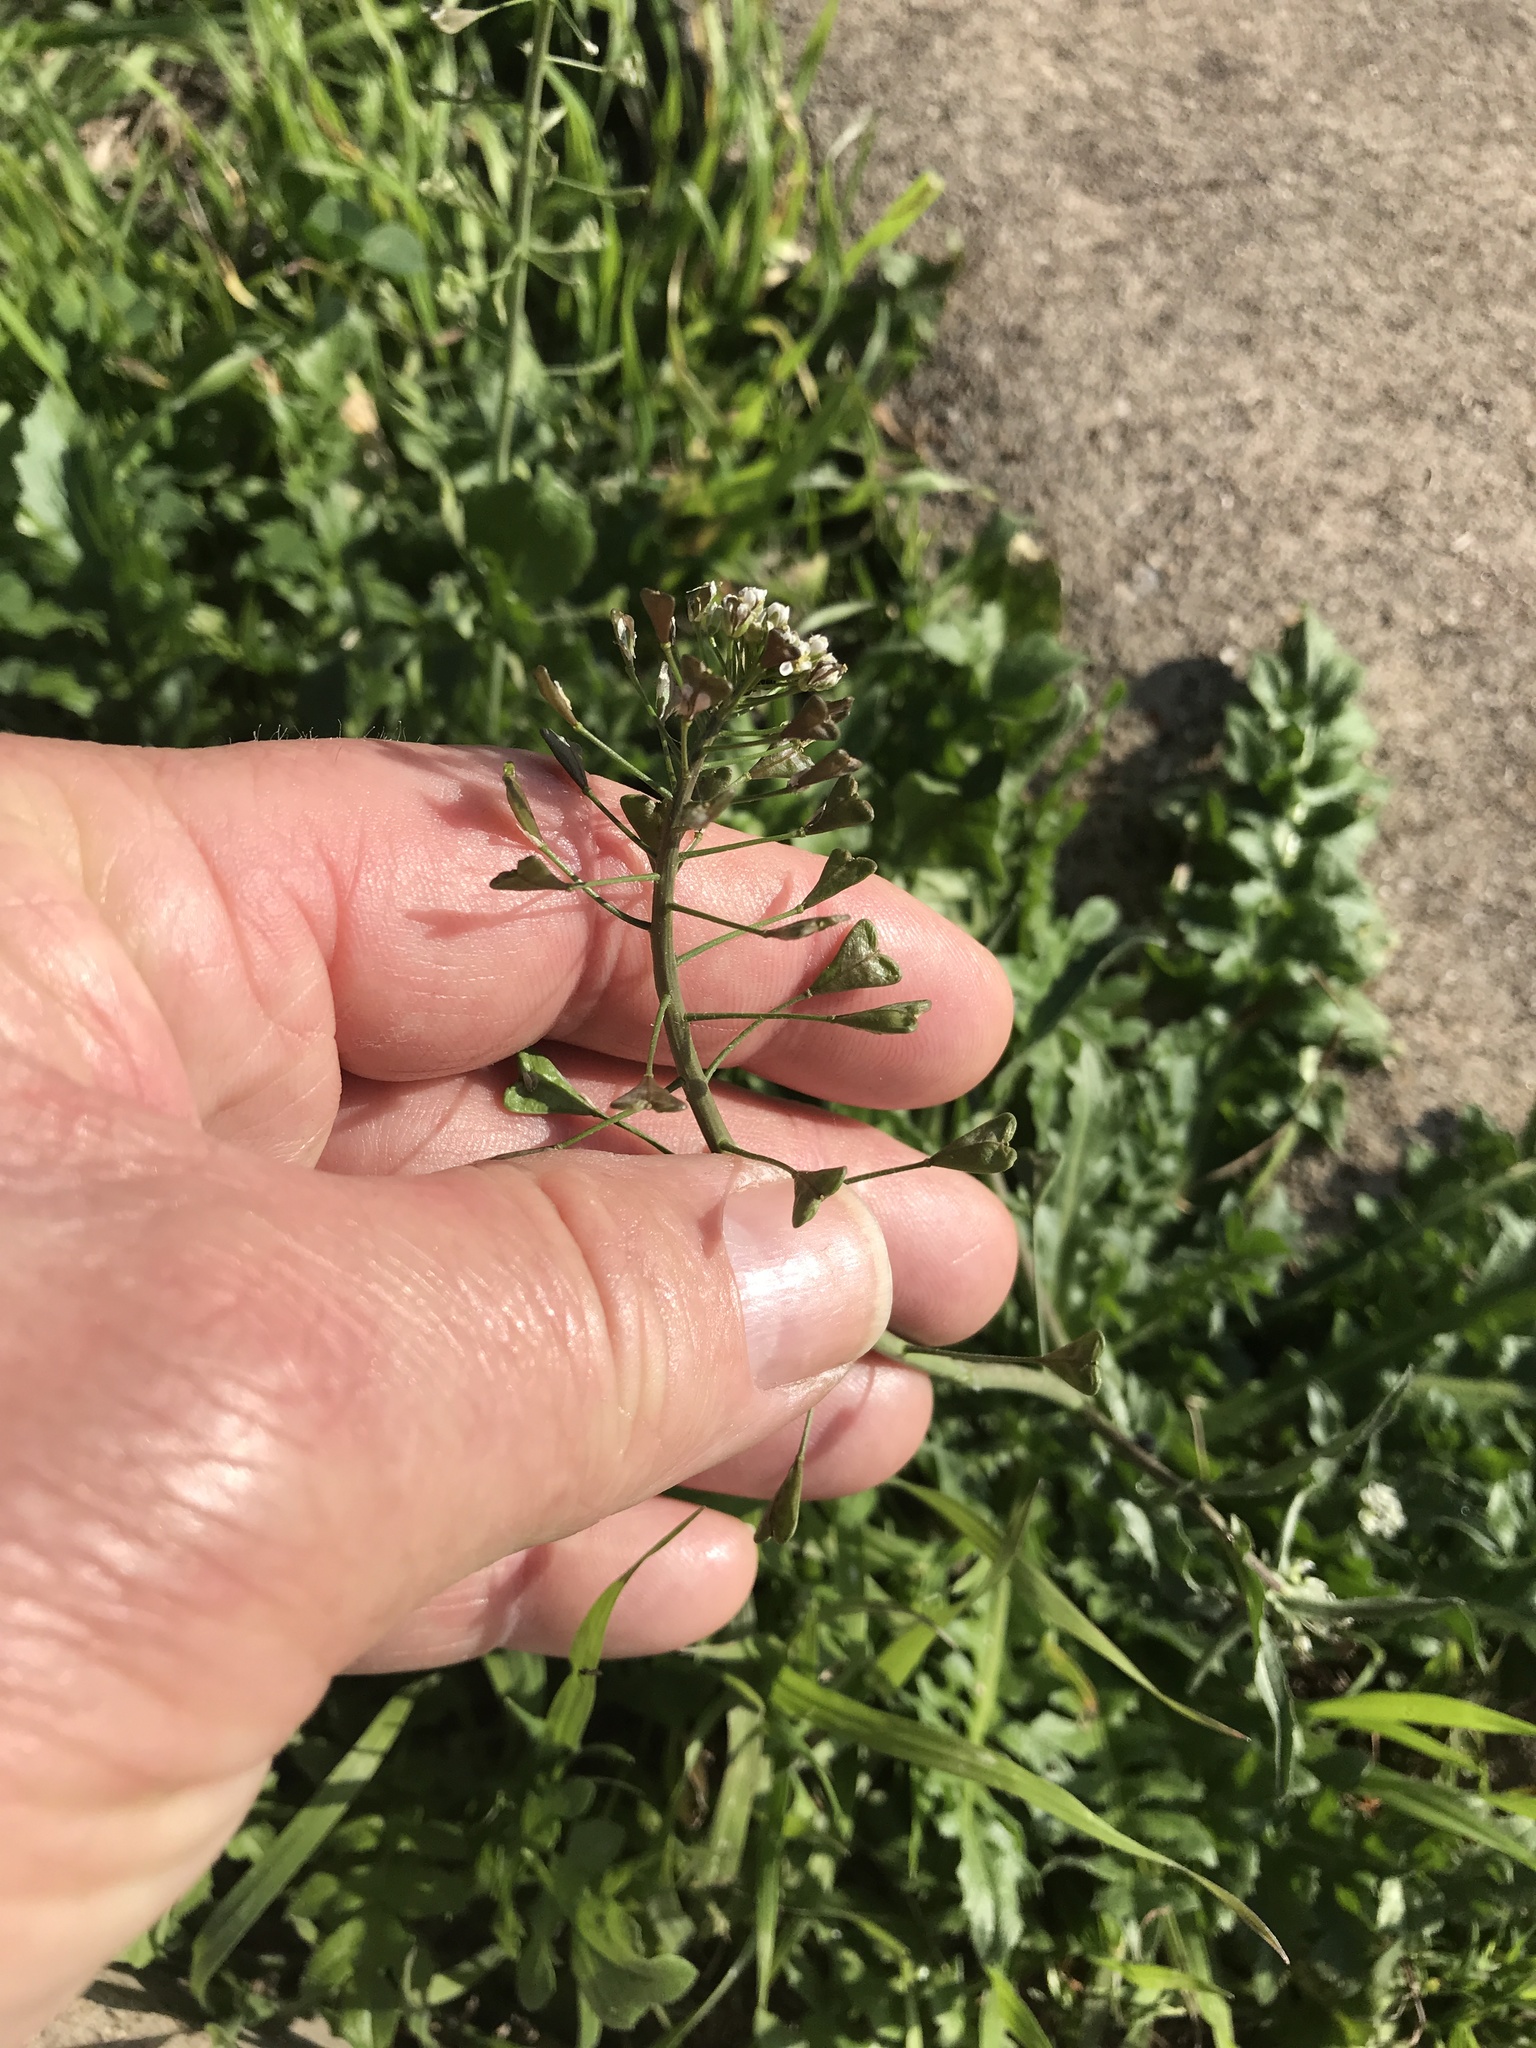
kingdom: Plantae
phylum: Tracheophyta
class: Magnoliopsida
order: Brassicales
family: Brassicaceae
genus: Capsella
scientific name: Capsella bursa-pastoris
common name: Shepherd's purse
